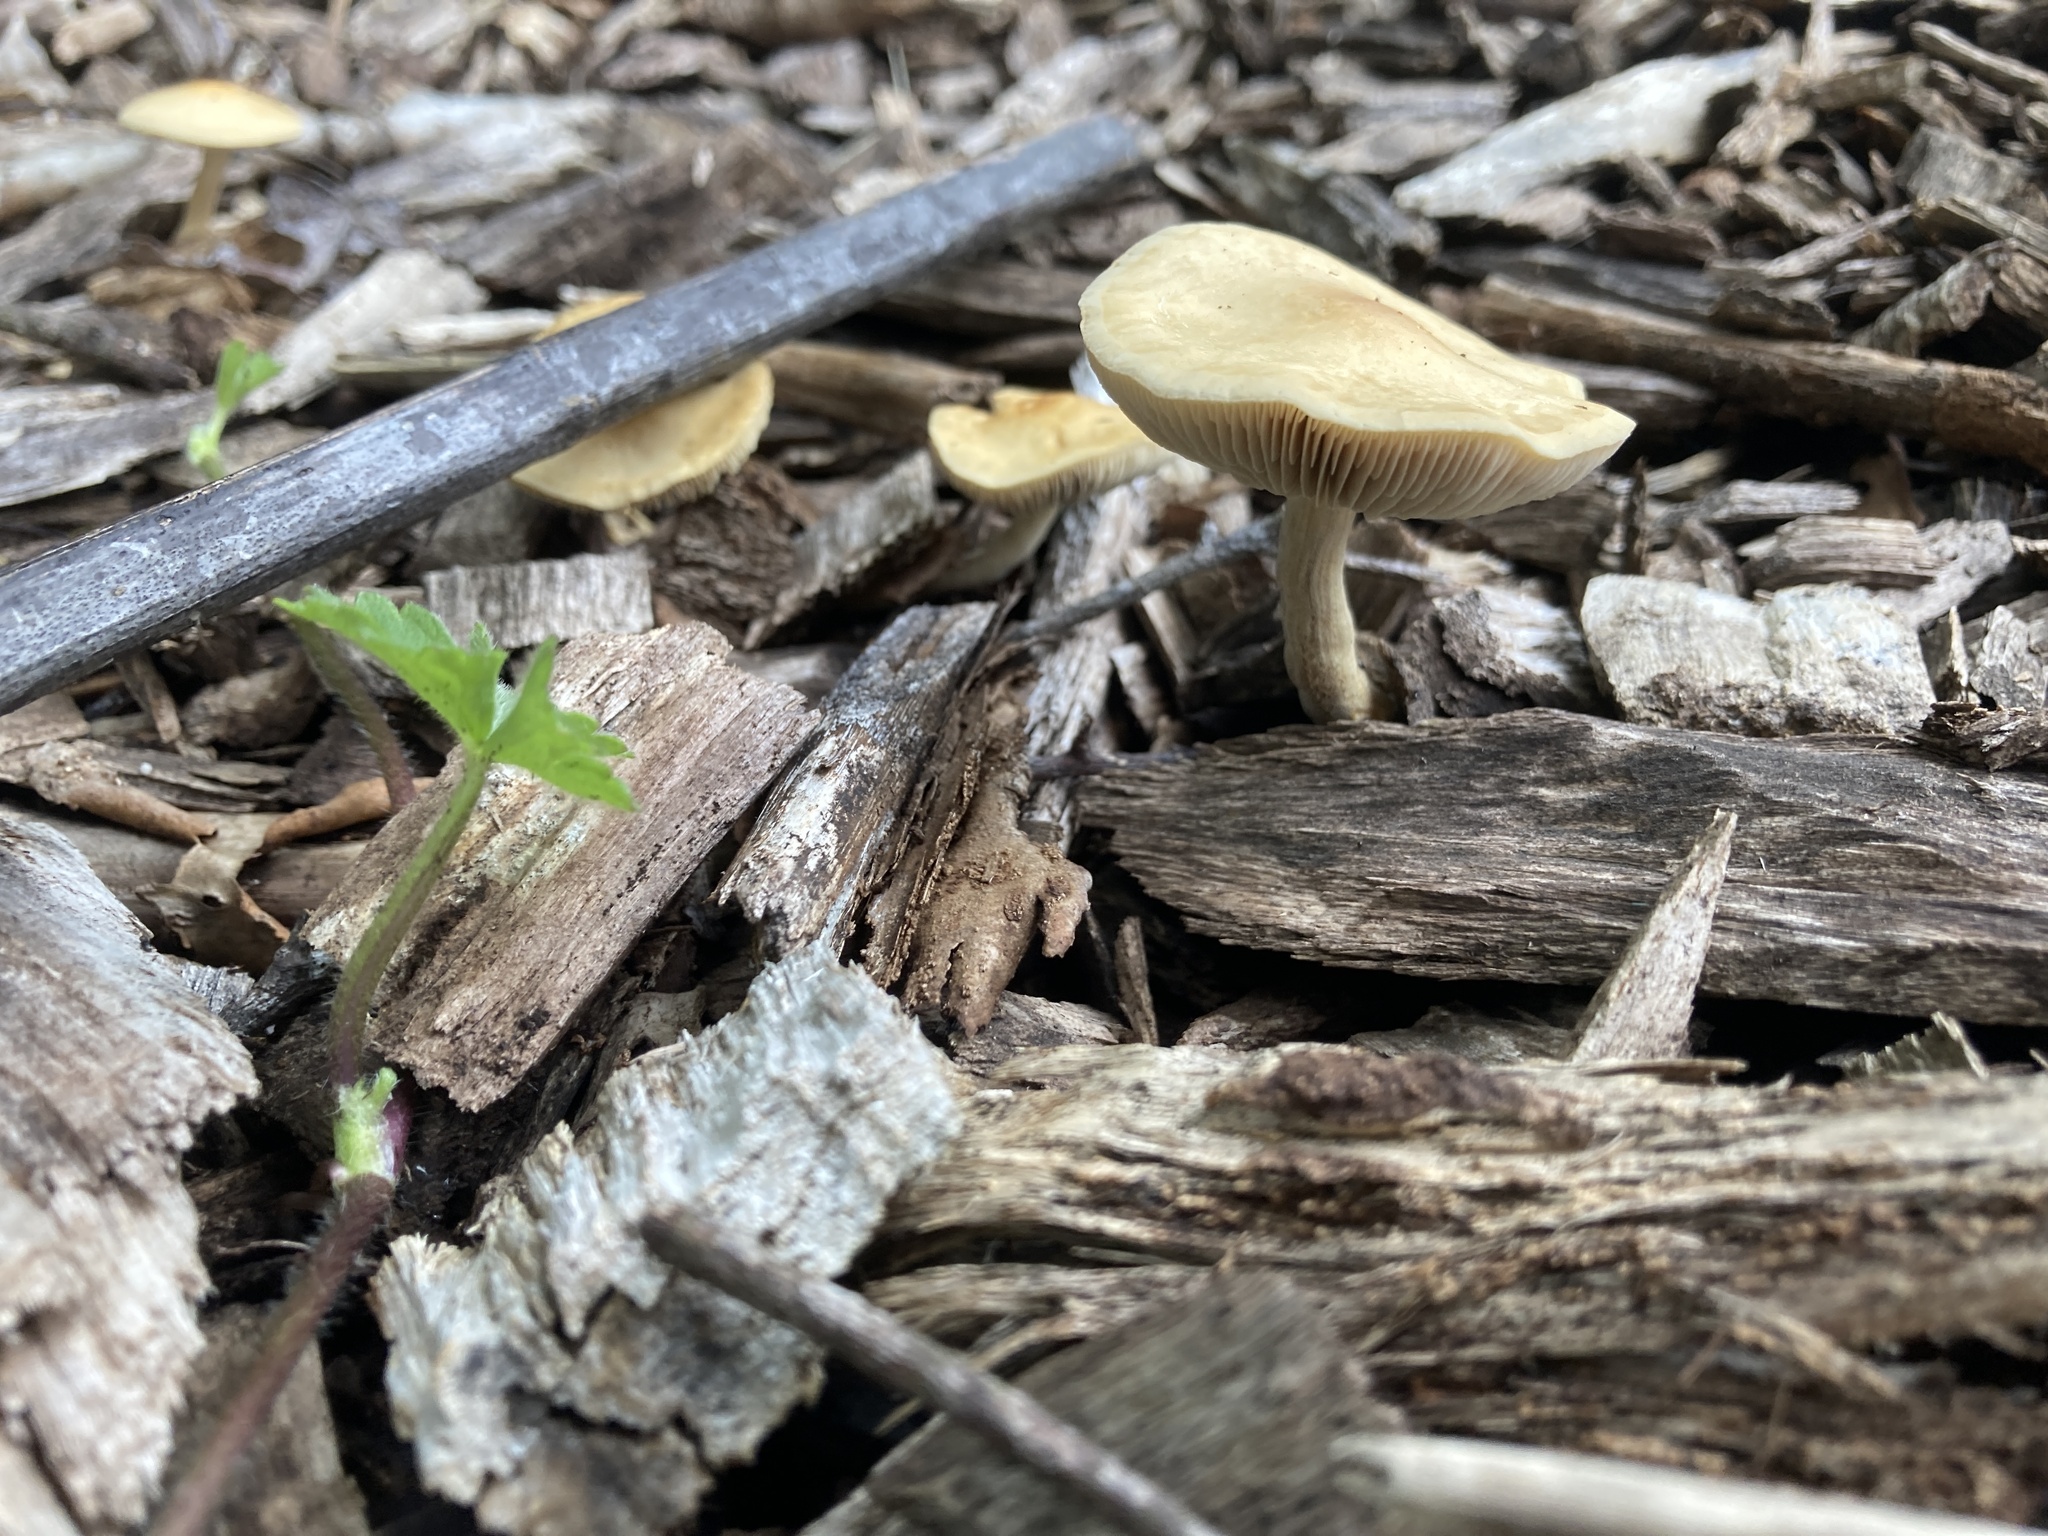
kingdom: Fungi
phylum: Basidiomycota
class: Agaricomycetes
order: Agaricales
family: Strophariaceae
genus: Agrocybe
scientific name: Agrocybe putaminum
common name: Mulch fieldcap
